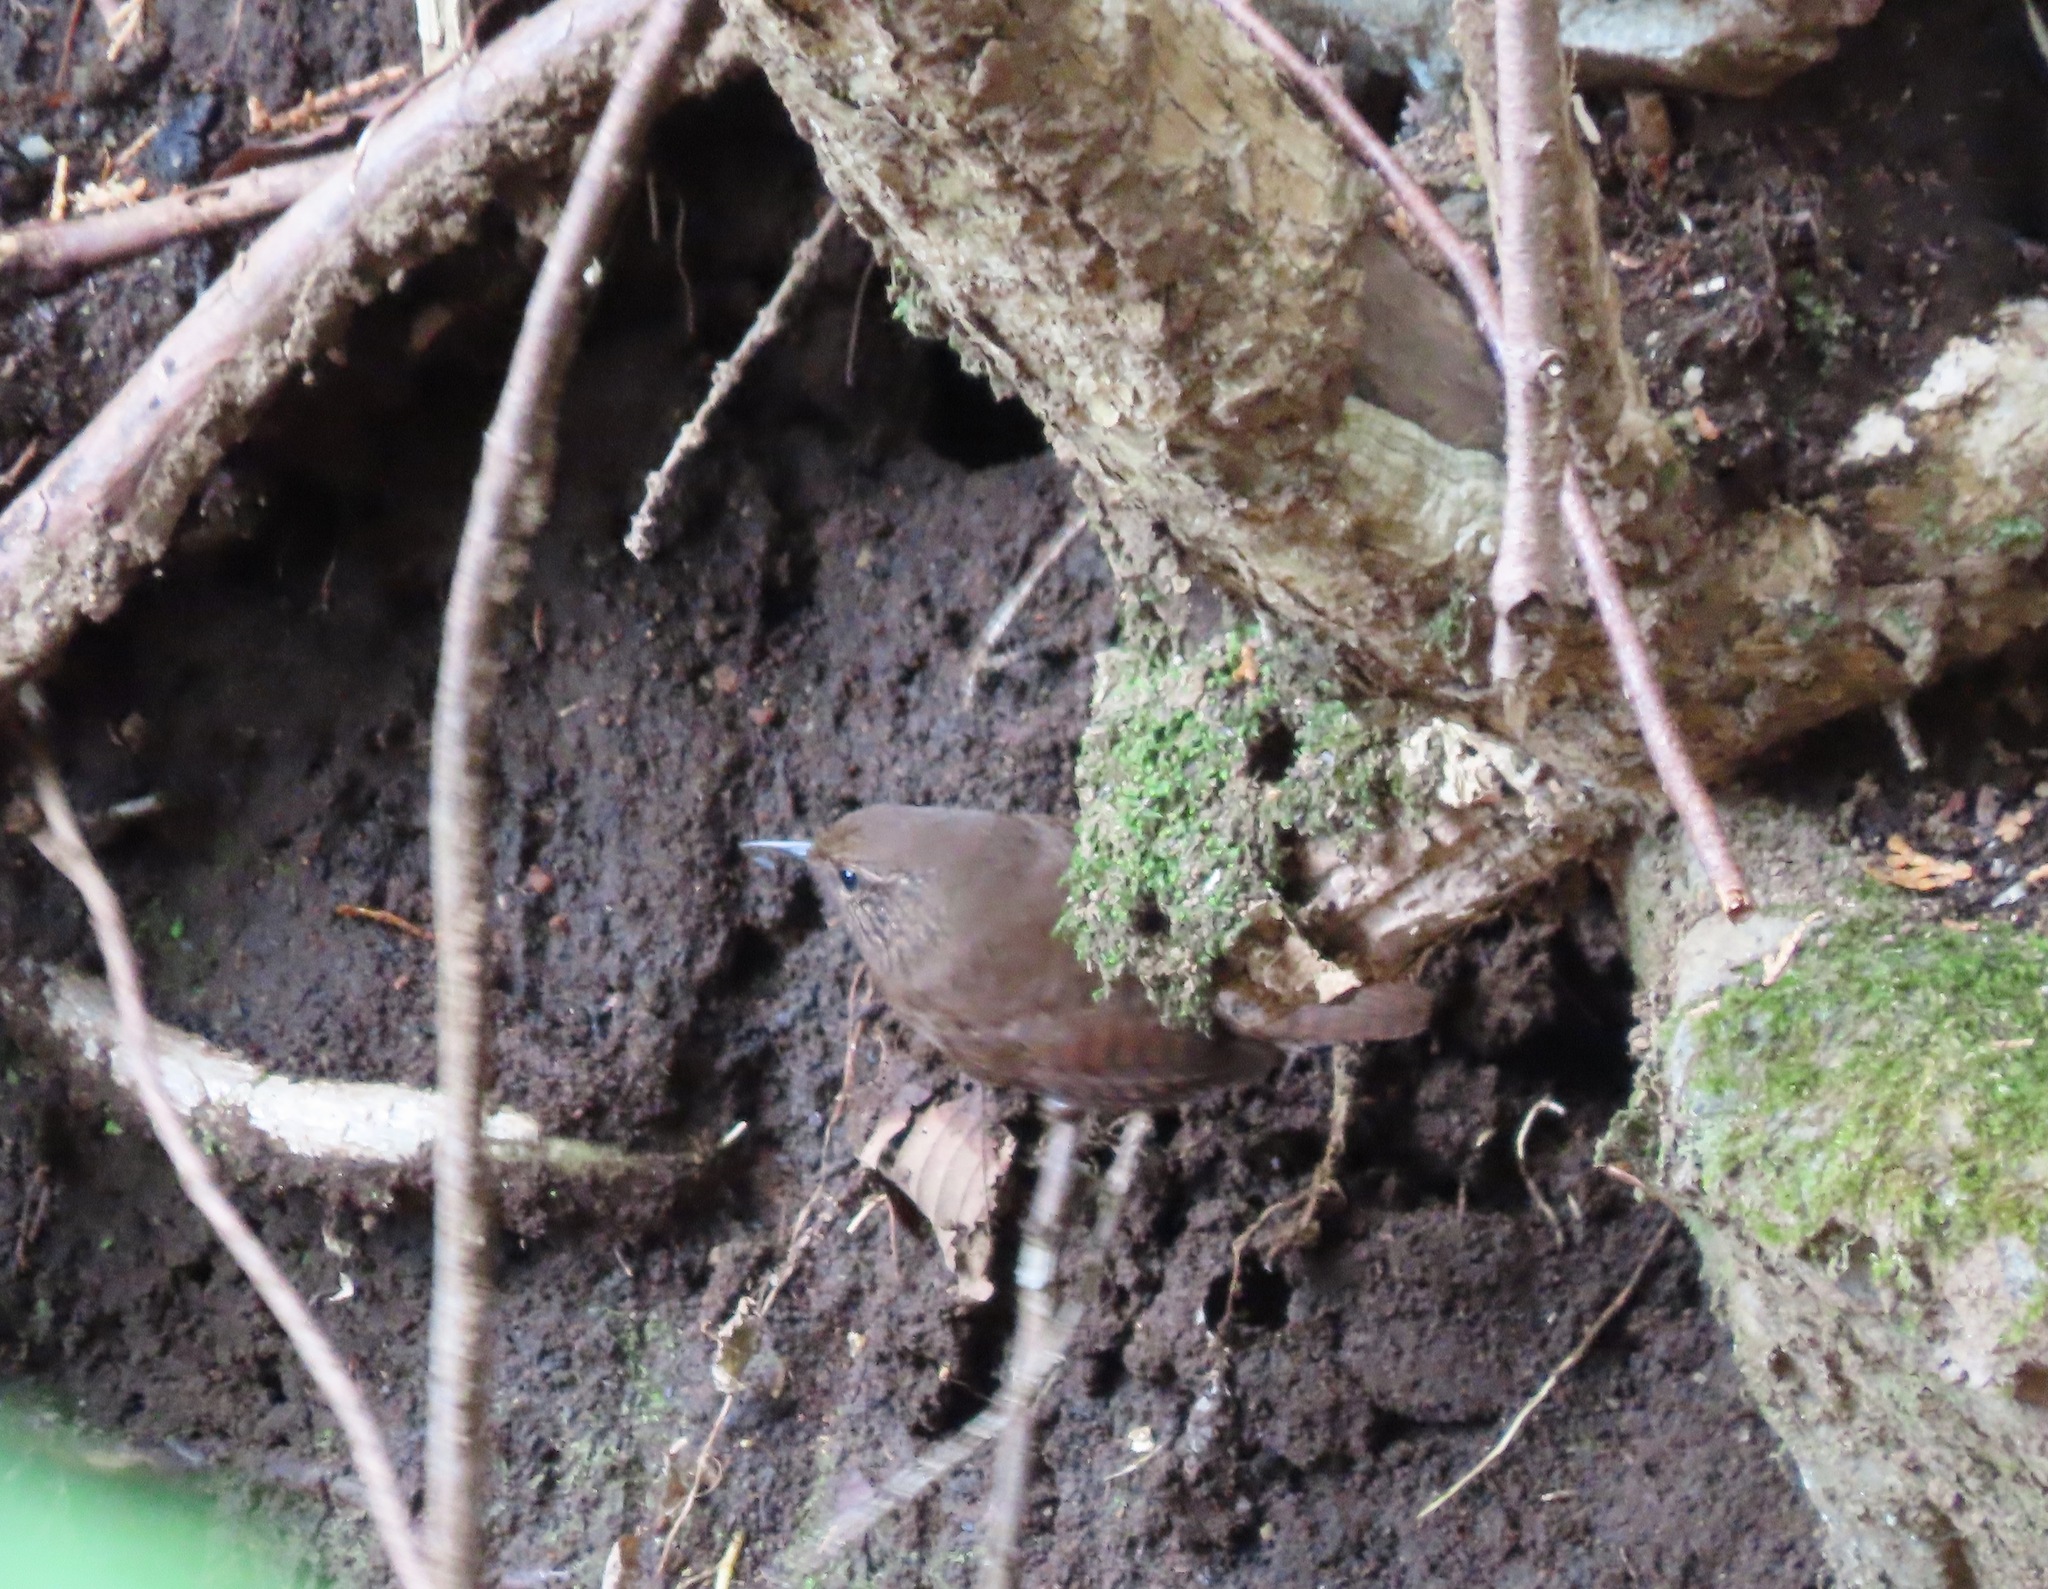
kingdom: Animalia
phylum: Chordata
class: Aves
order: Passeriformes
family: Troglodytidae
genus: Troglodytes
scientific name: Troglodytes troglodytes
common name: Eurasian wren
